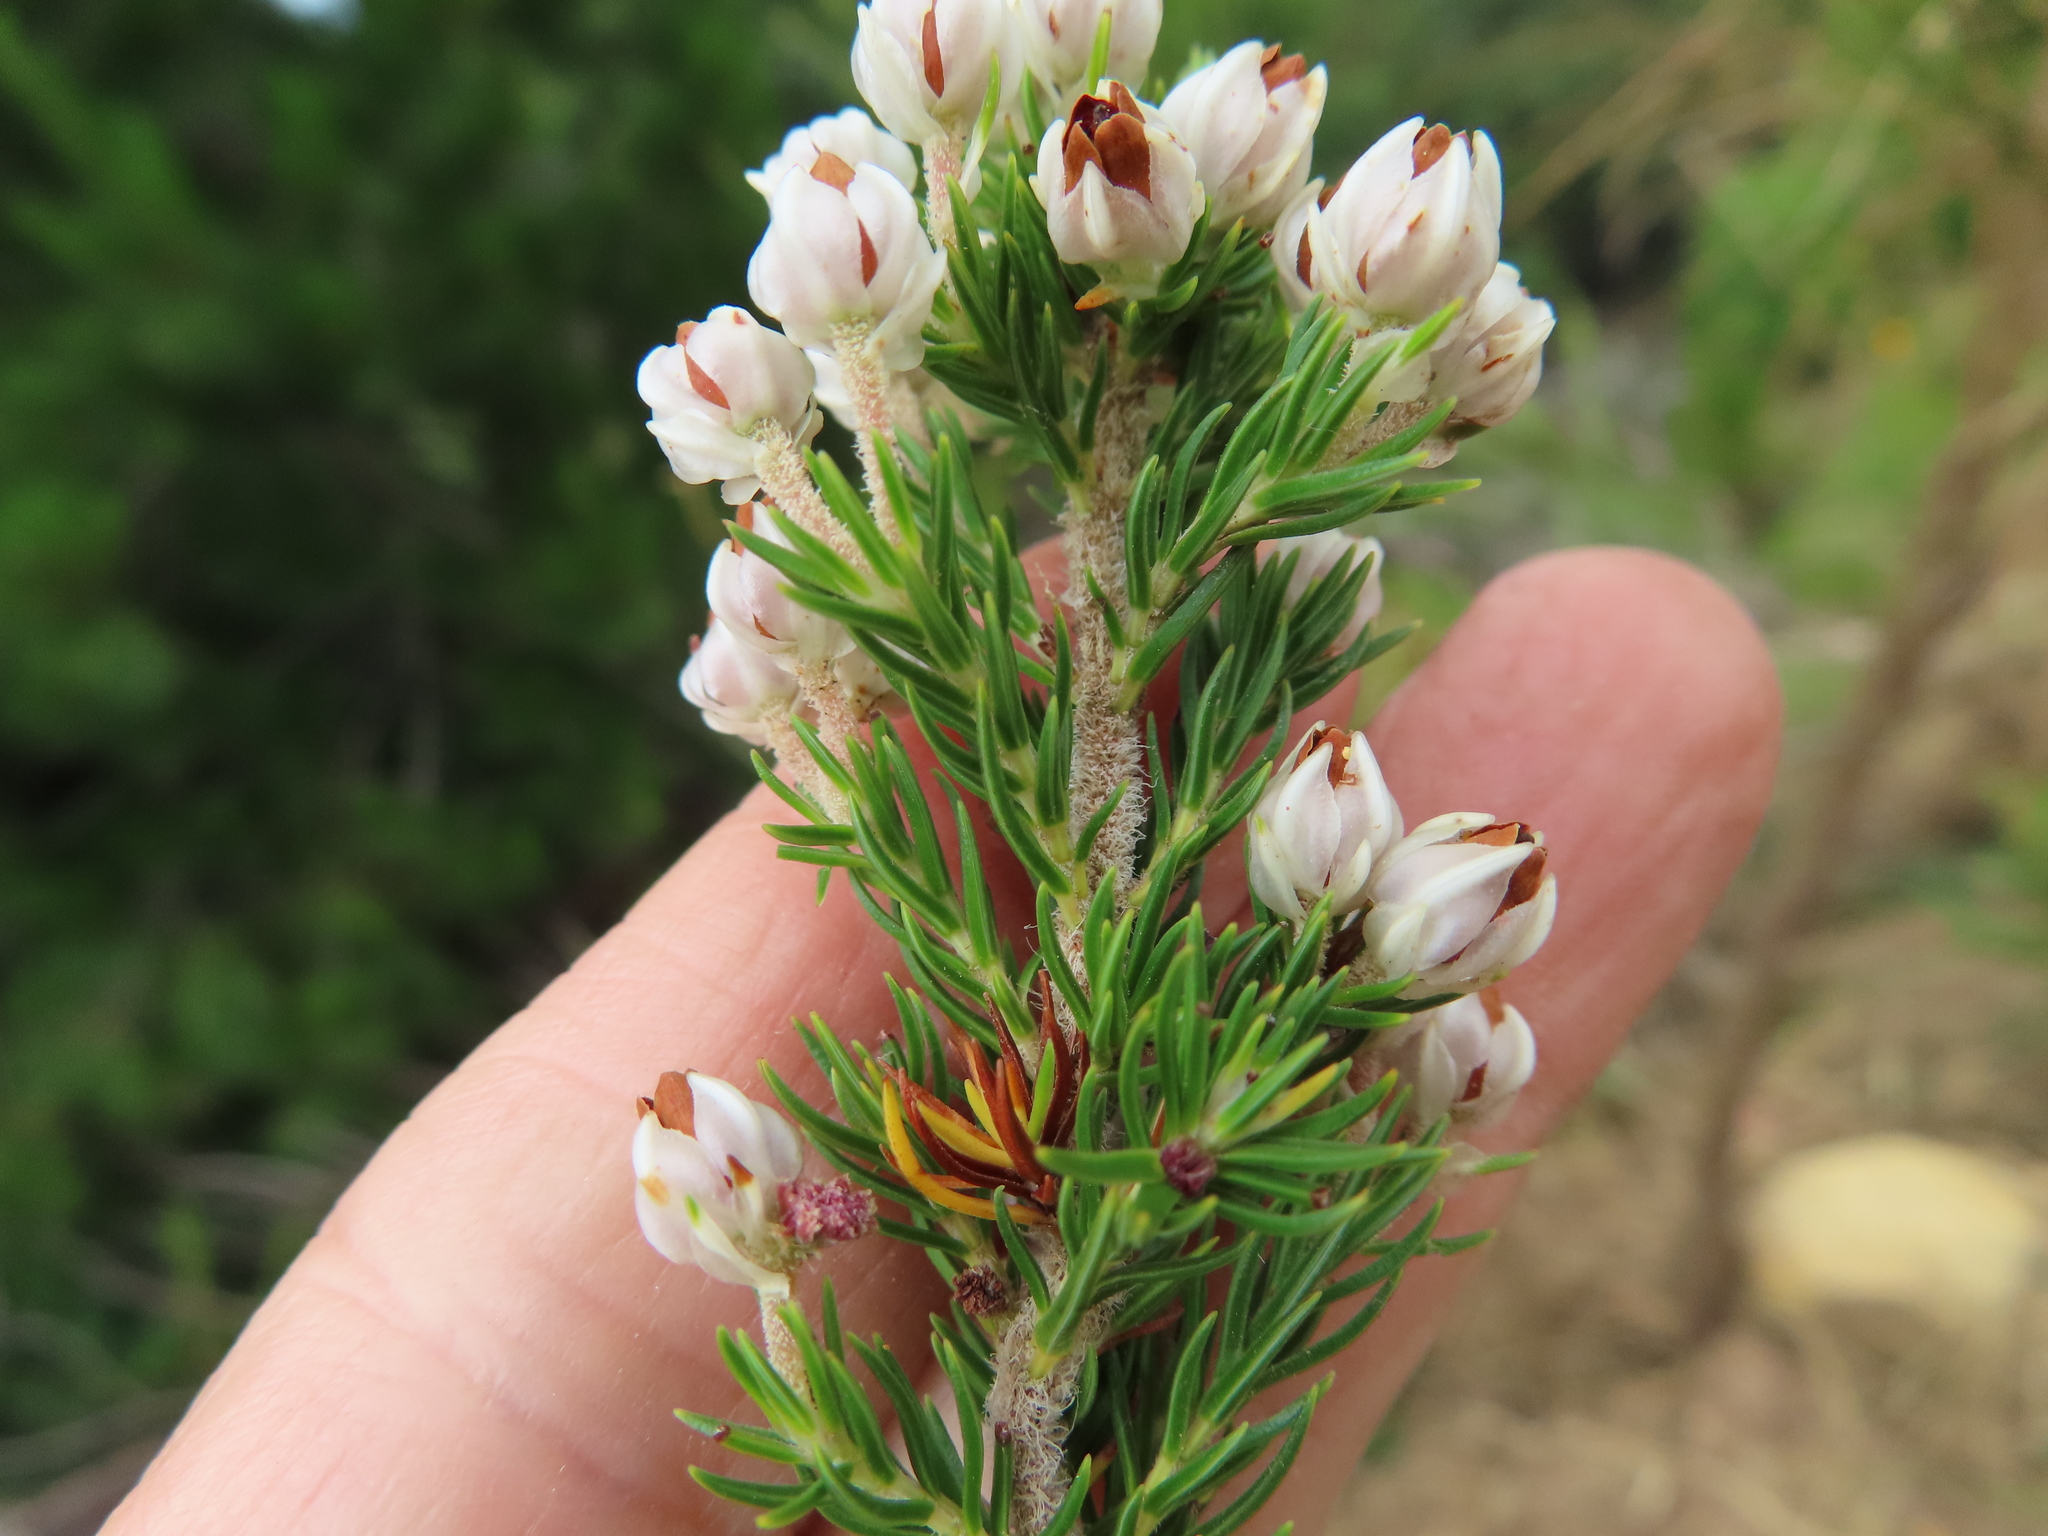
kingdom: Plantae
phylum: Tracheophyta
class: Magnoliopsida
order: Ericales
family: Ericaceae
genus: Erica
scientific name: Erica triflora
